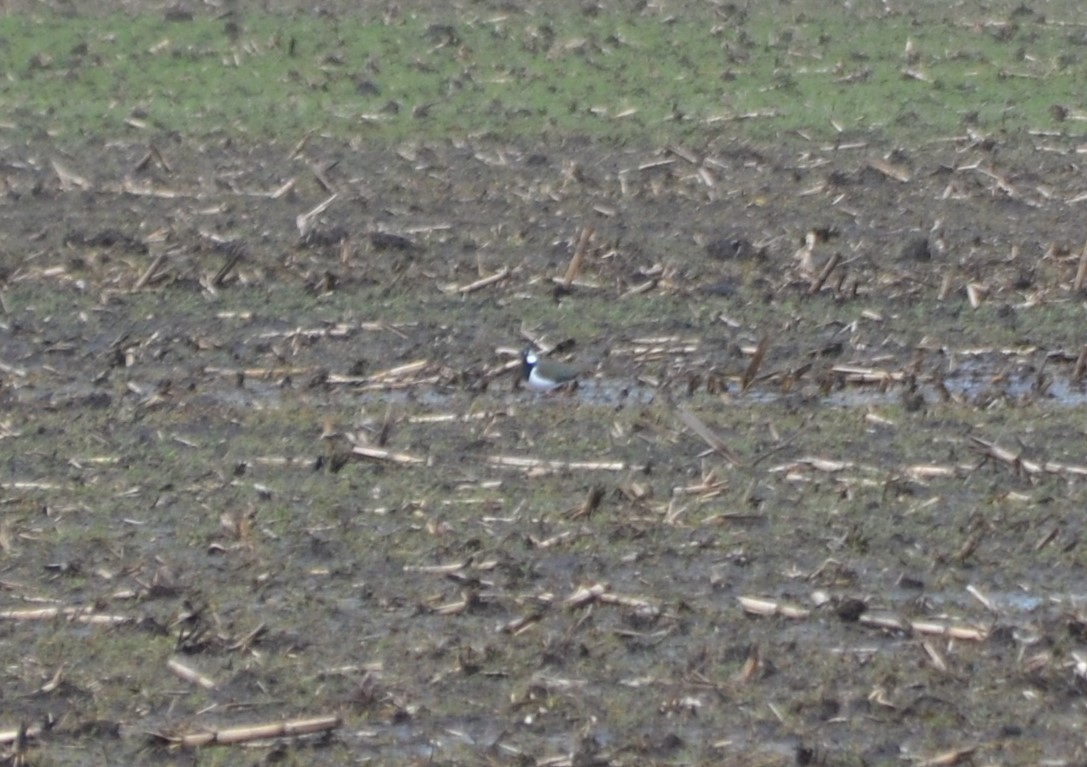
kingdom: Animalia
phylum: Chordata
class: Aves
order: Charadriiformes
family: Charadriidae
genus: Vanellus
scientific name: Vanellus vanellus
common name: Northern lapwing
